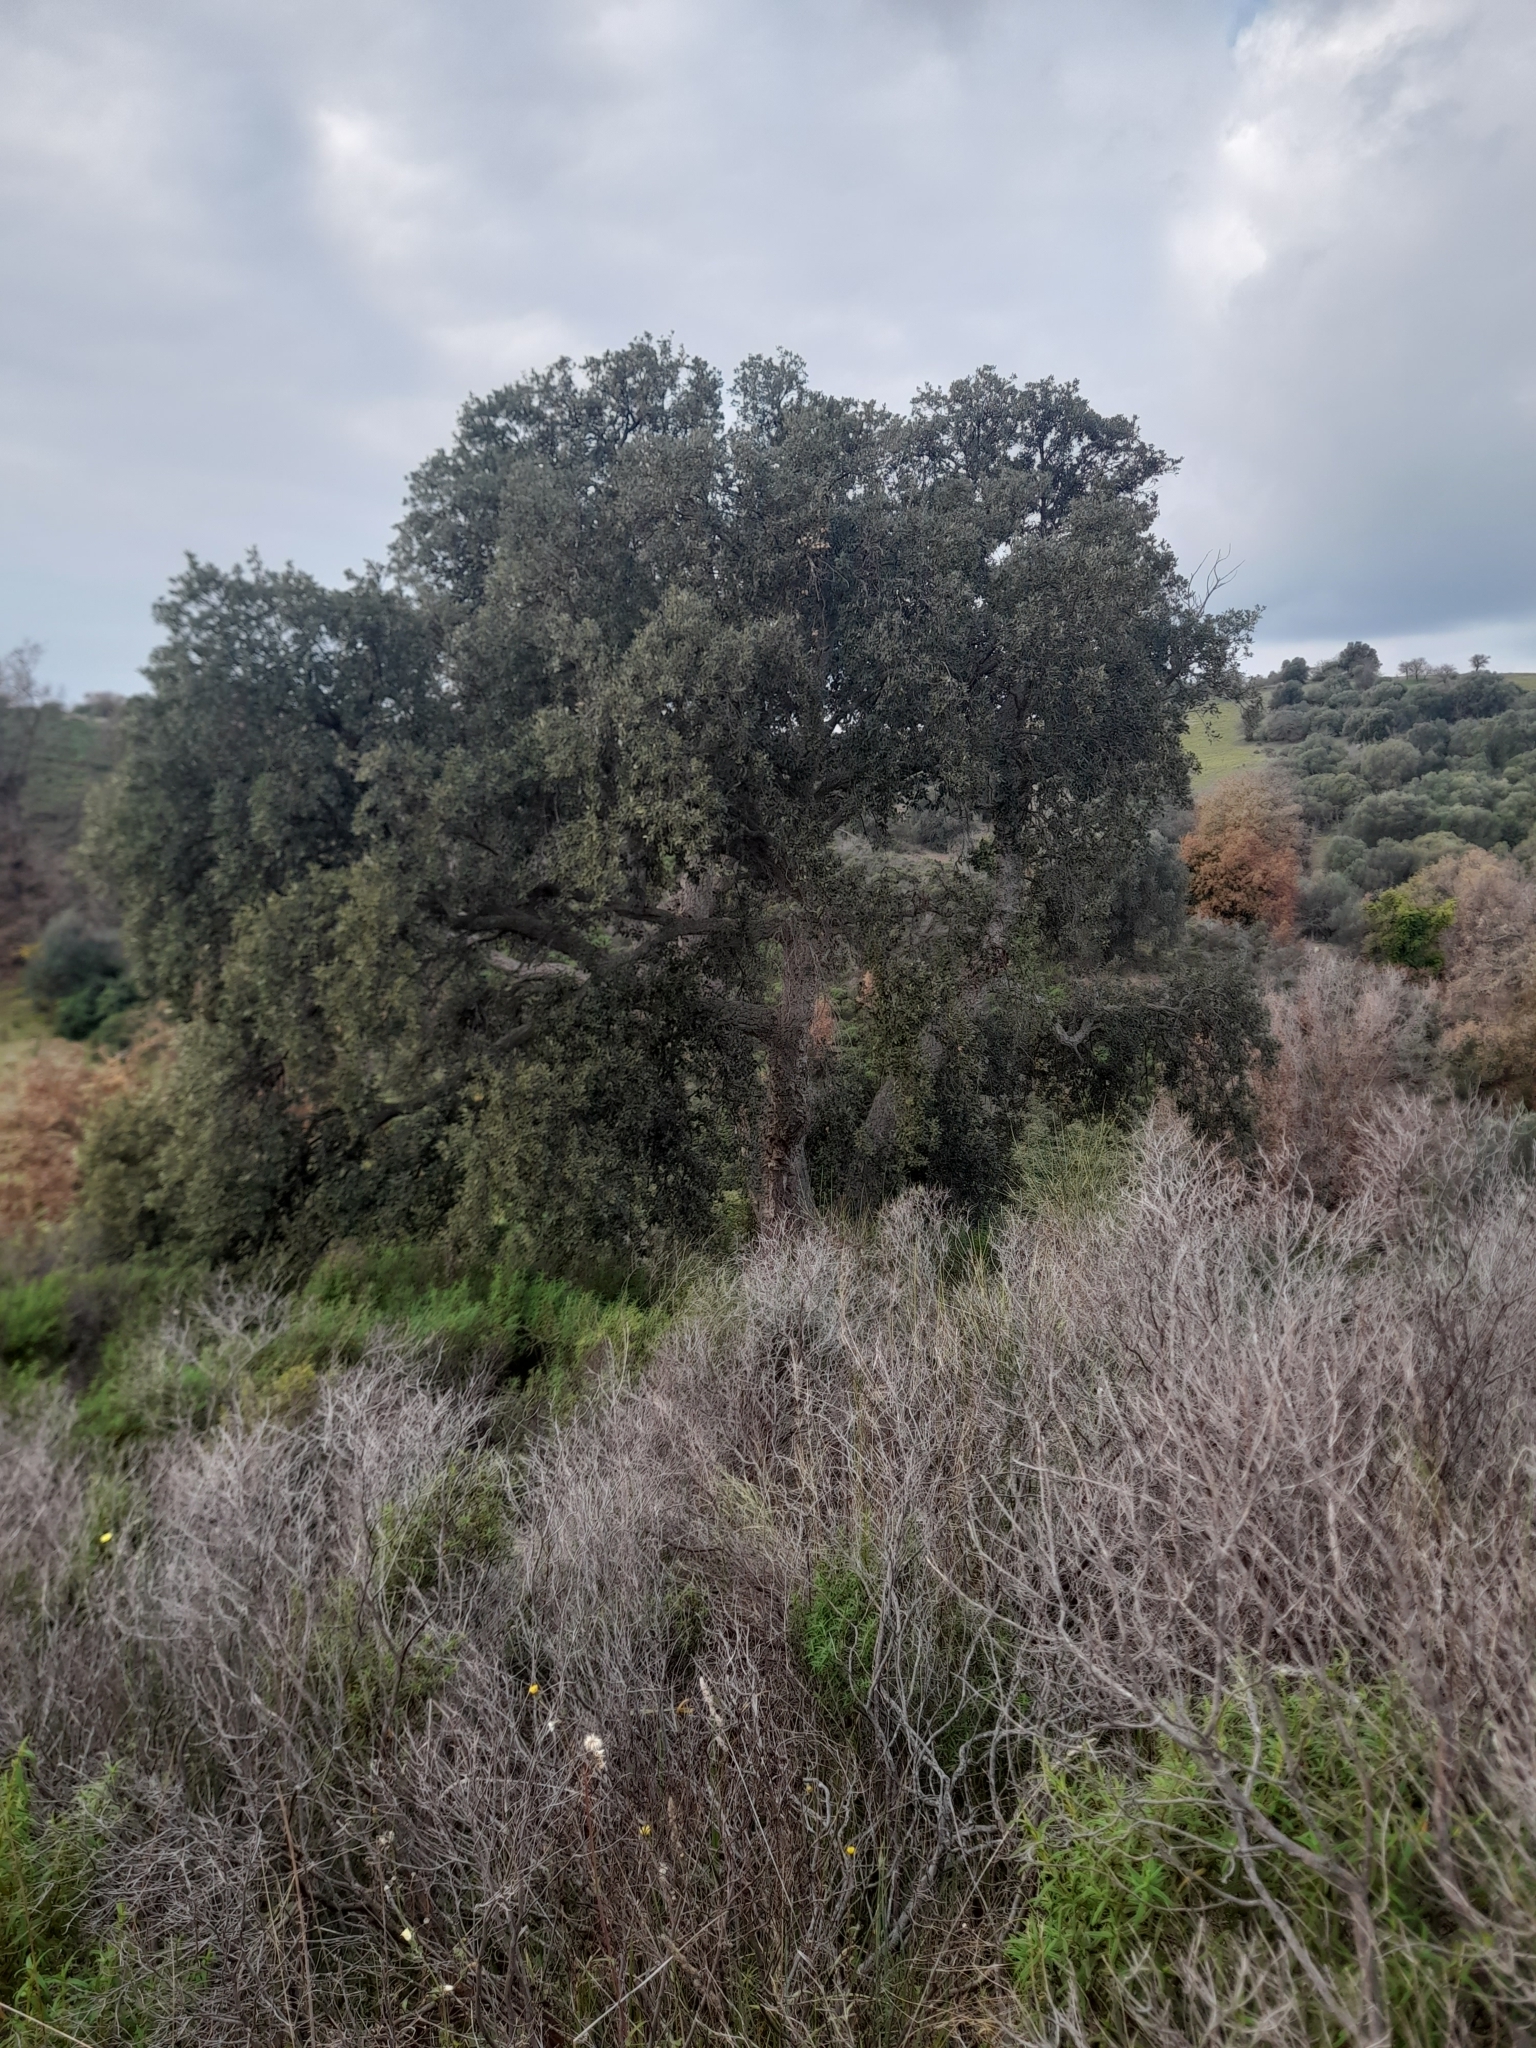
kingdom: Plantae
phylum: Tracheophyta
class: Magnoliopsida
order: Fagales
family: Fagaceae
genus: Quercus
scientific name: Quercus suber
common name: Cork oak
